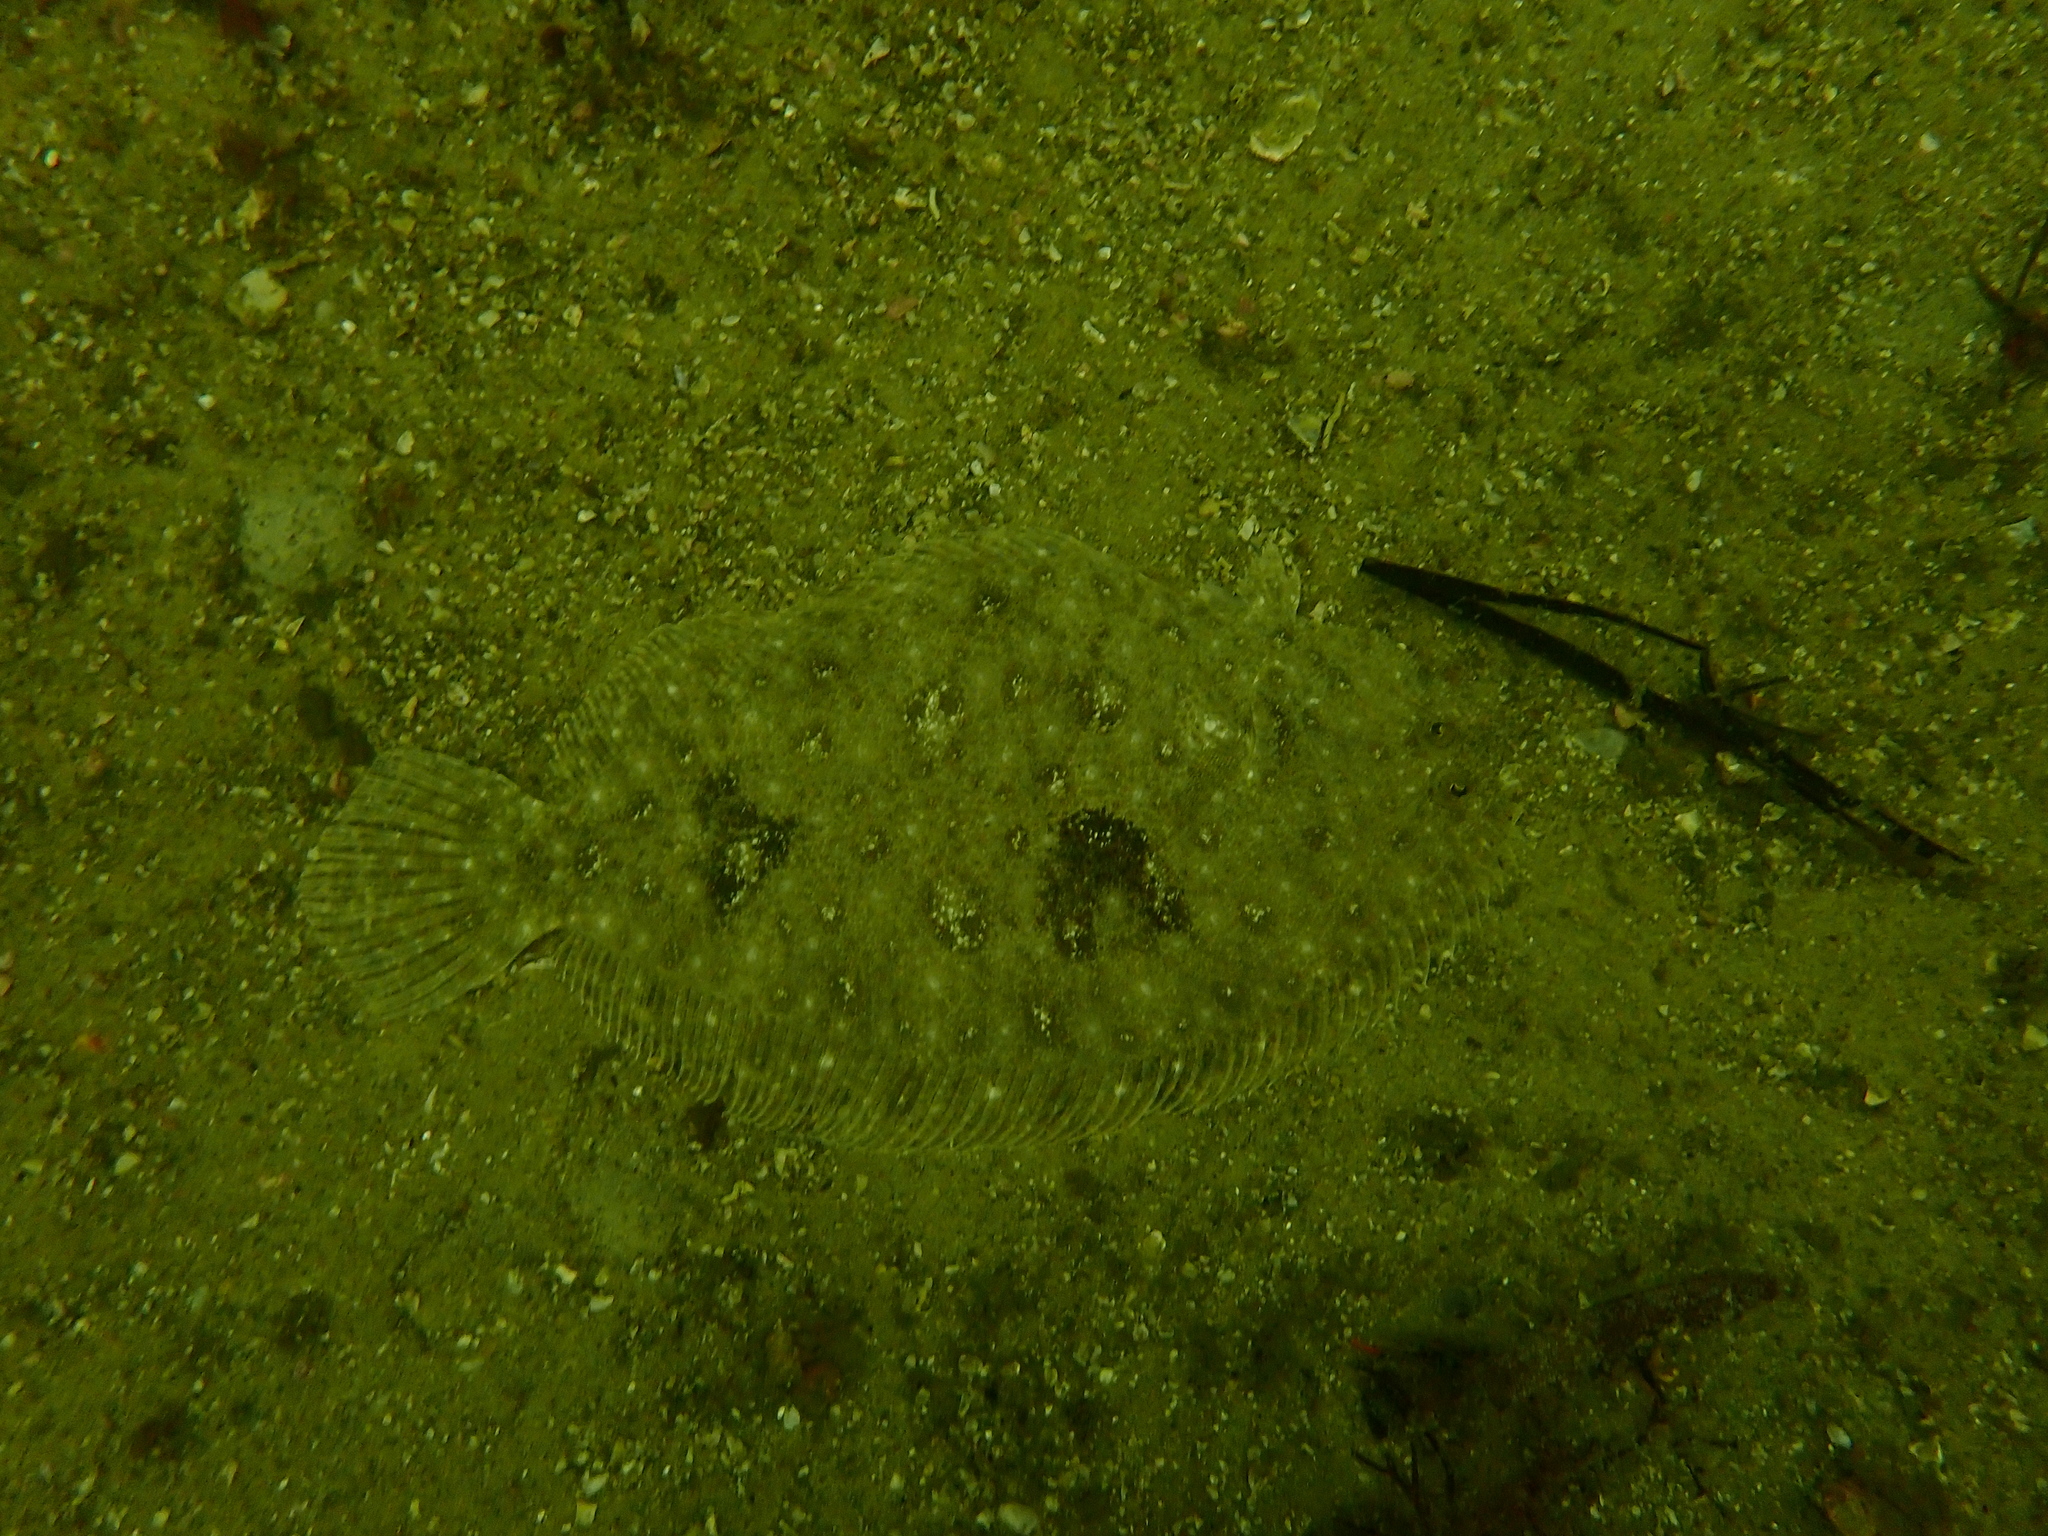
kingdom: Animalia
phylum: Chordata
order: Pleuronectiformes
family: Paralichthyidae
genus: Pseudorhombus
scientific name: Pseudorhombus javanicus
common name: Javan flounder
